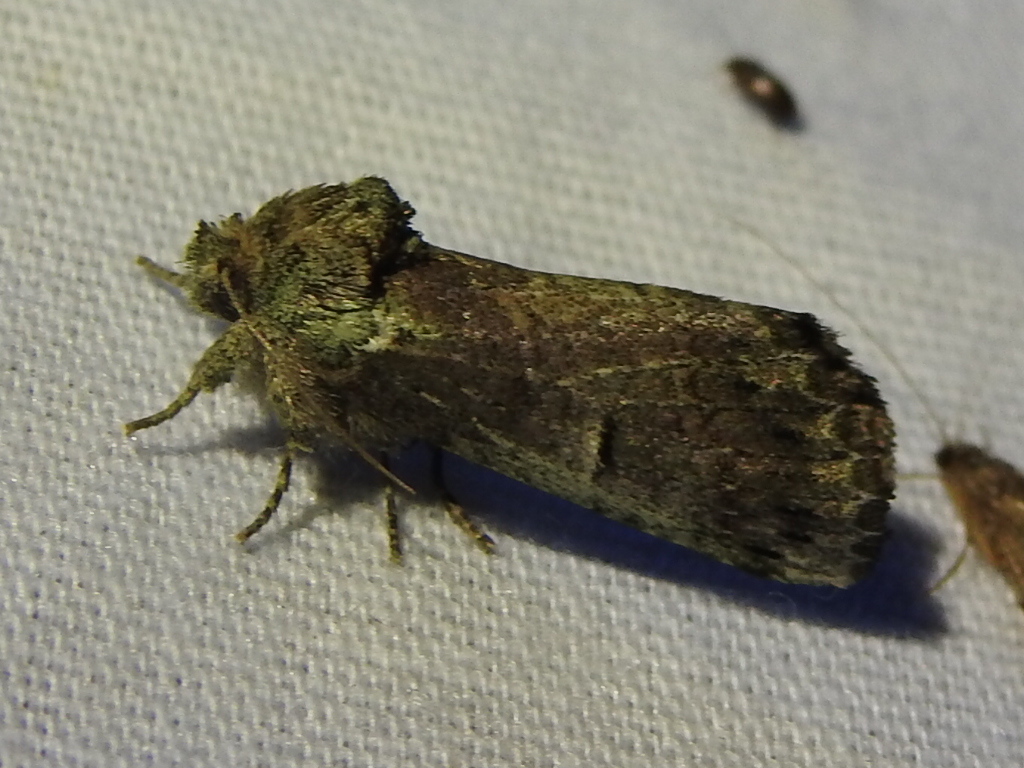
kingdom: Animalia
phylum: Arthropoda
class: Insecta
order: Lepidoptera
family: Notodontidae
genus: Schizura
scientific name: Schizura
